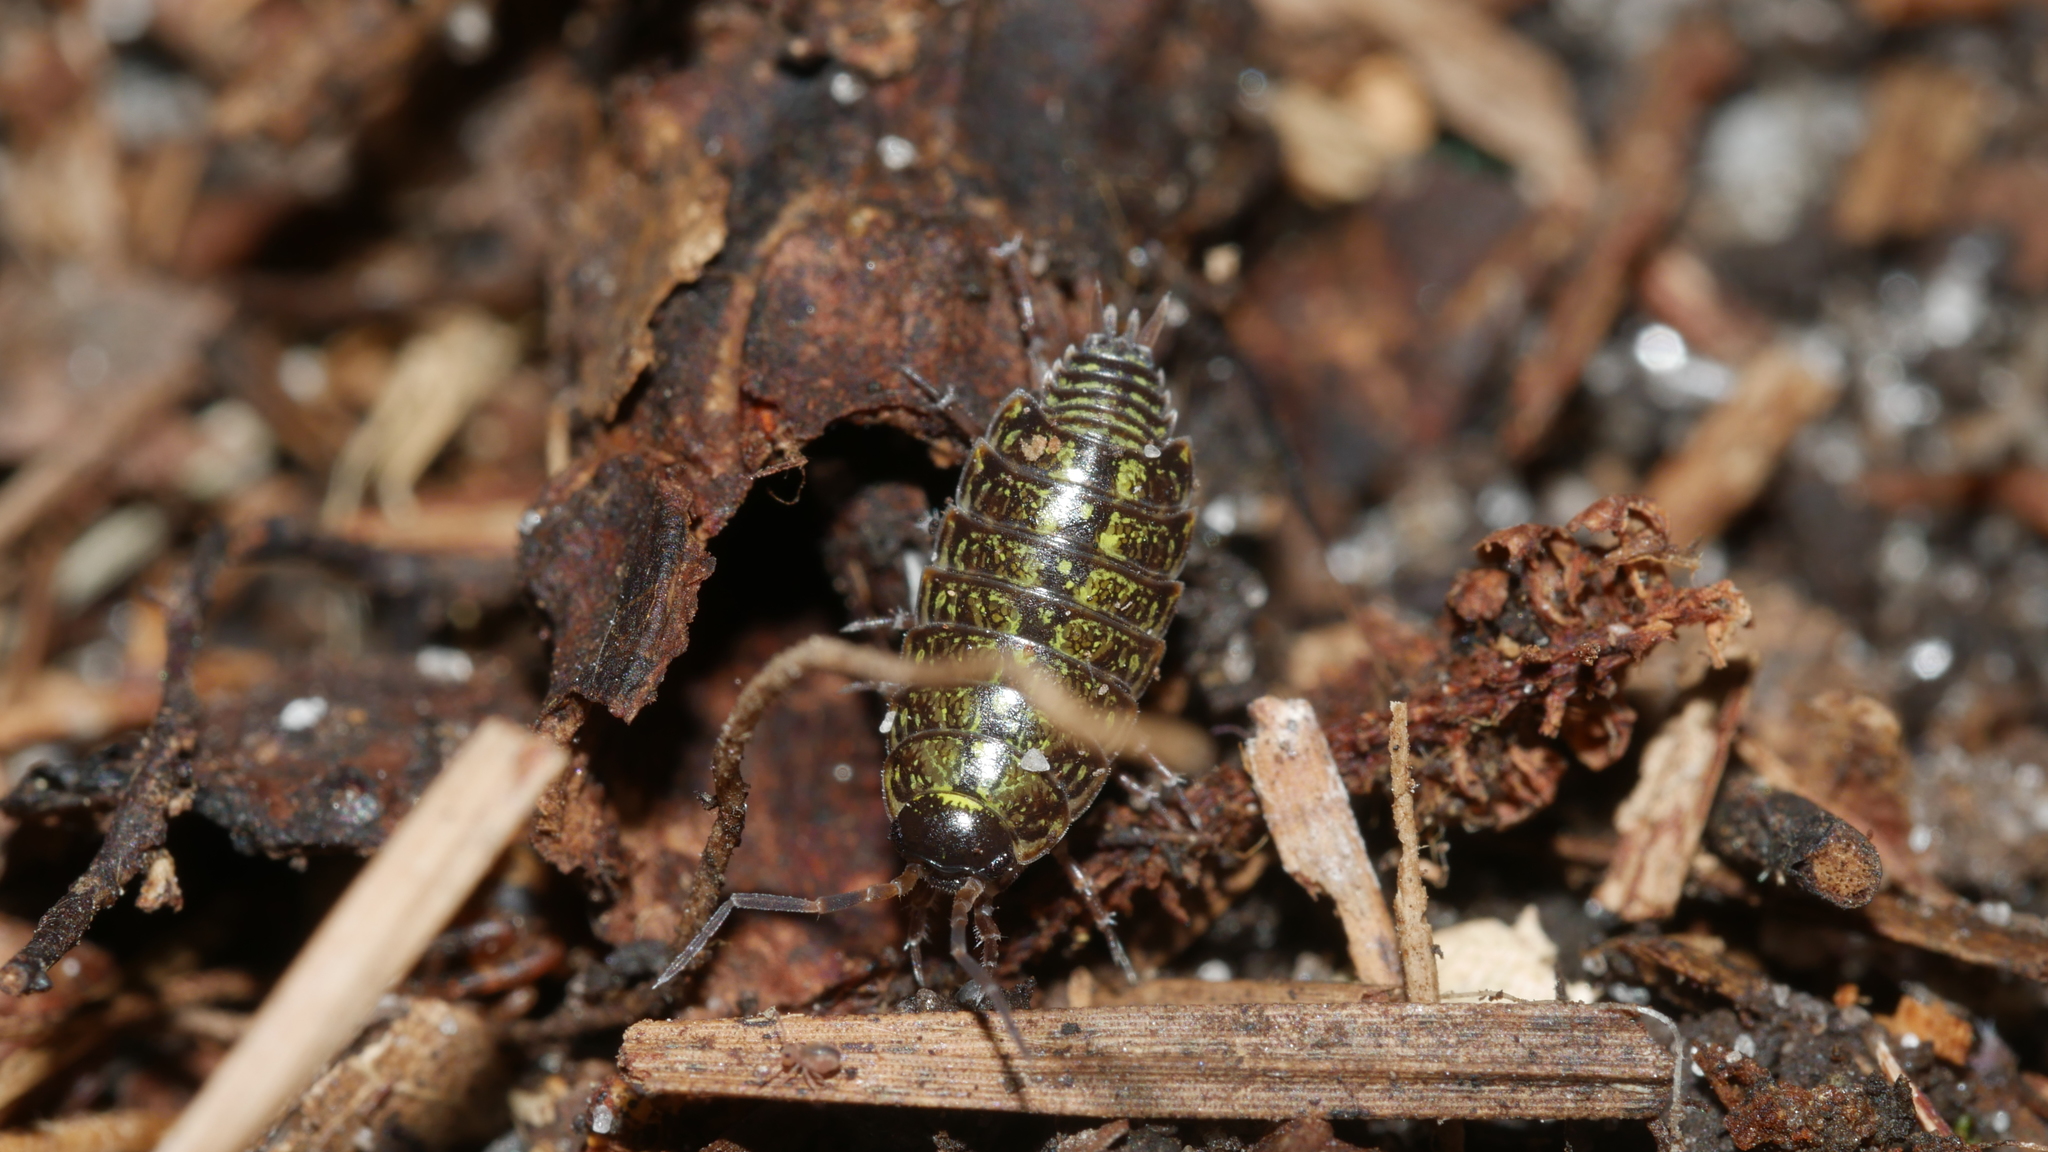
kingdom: Animalia
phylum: Arthropoda
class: Malacostraca
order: Isopoda
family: Philosciidae
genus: Philoscia
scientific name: Philoscia muscorum
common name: Common striped woodlouse
